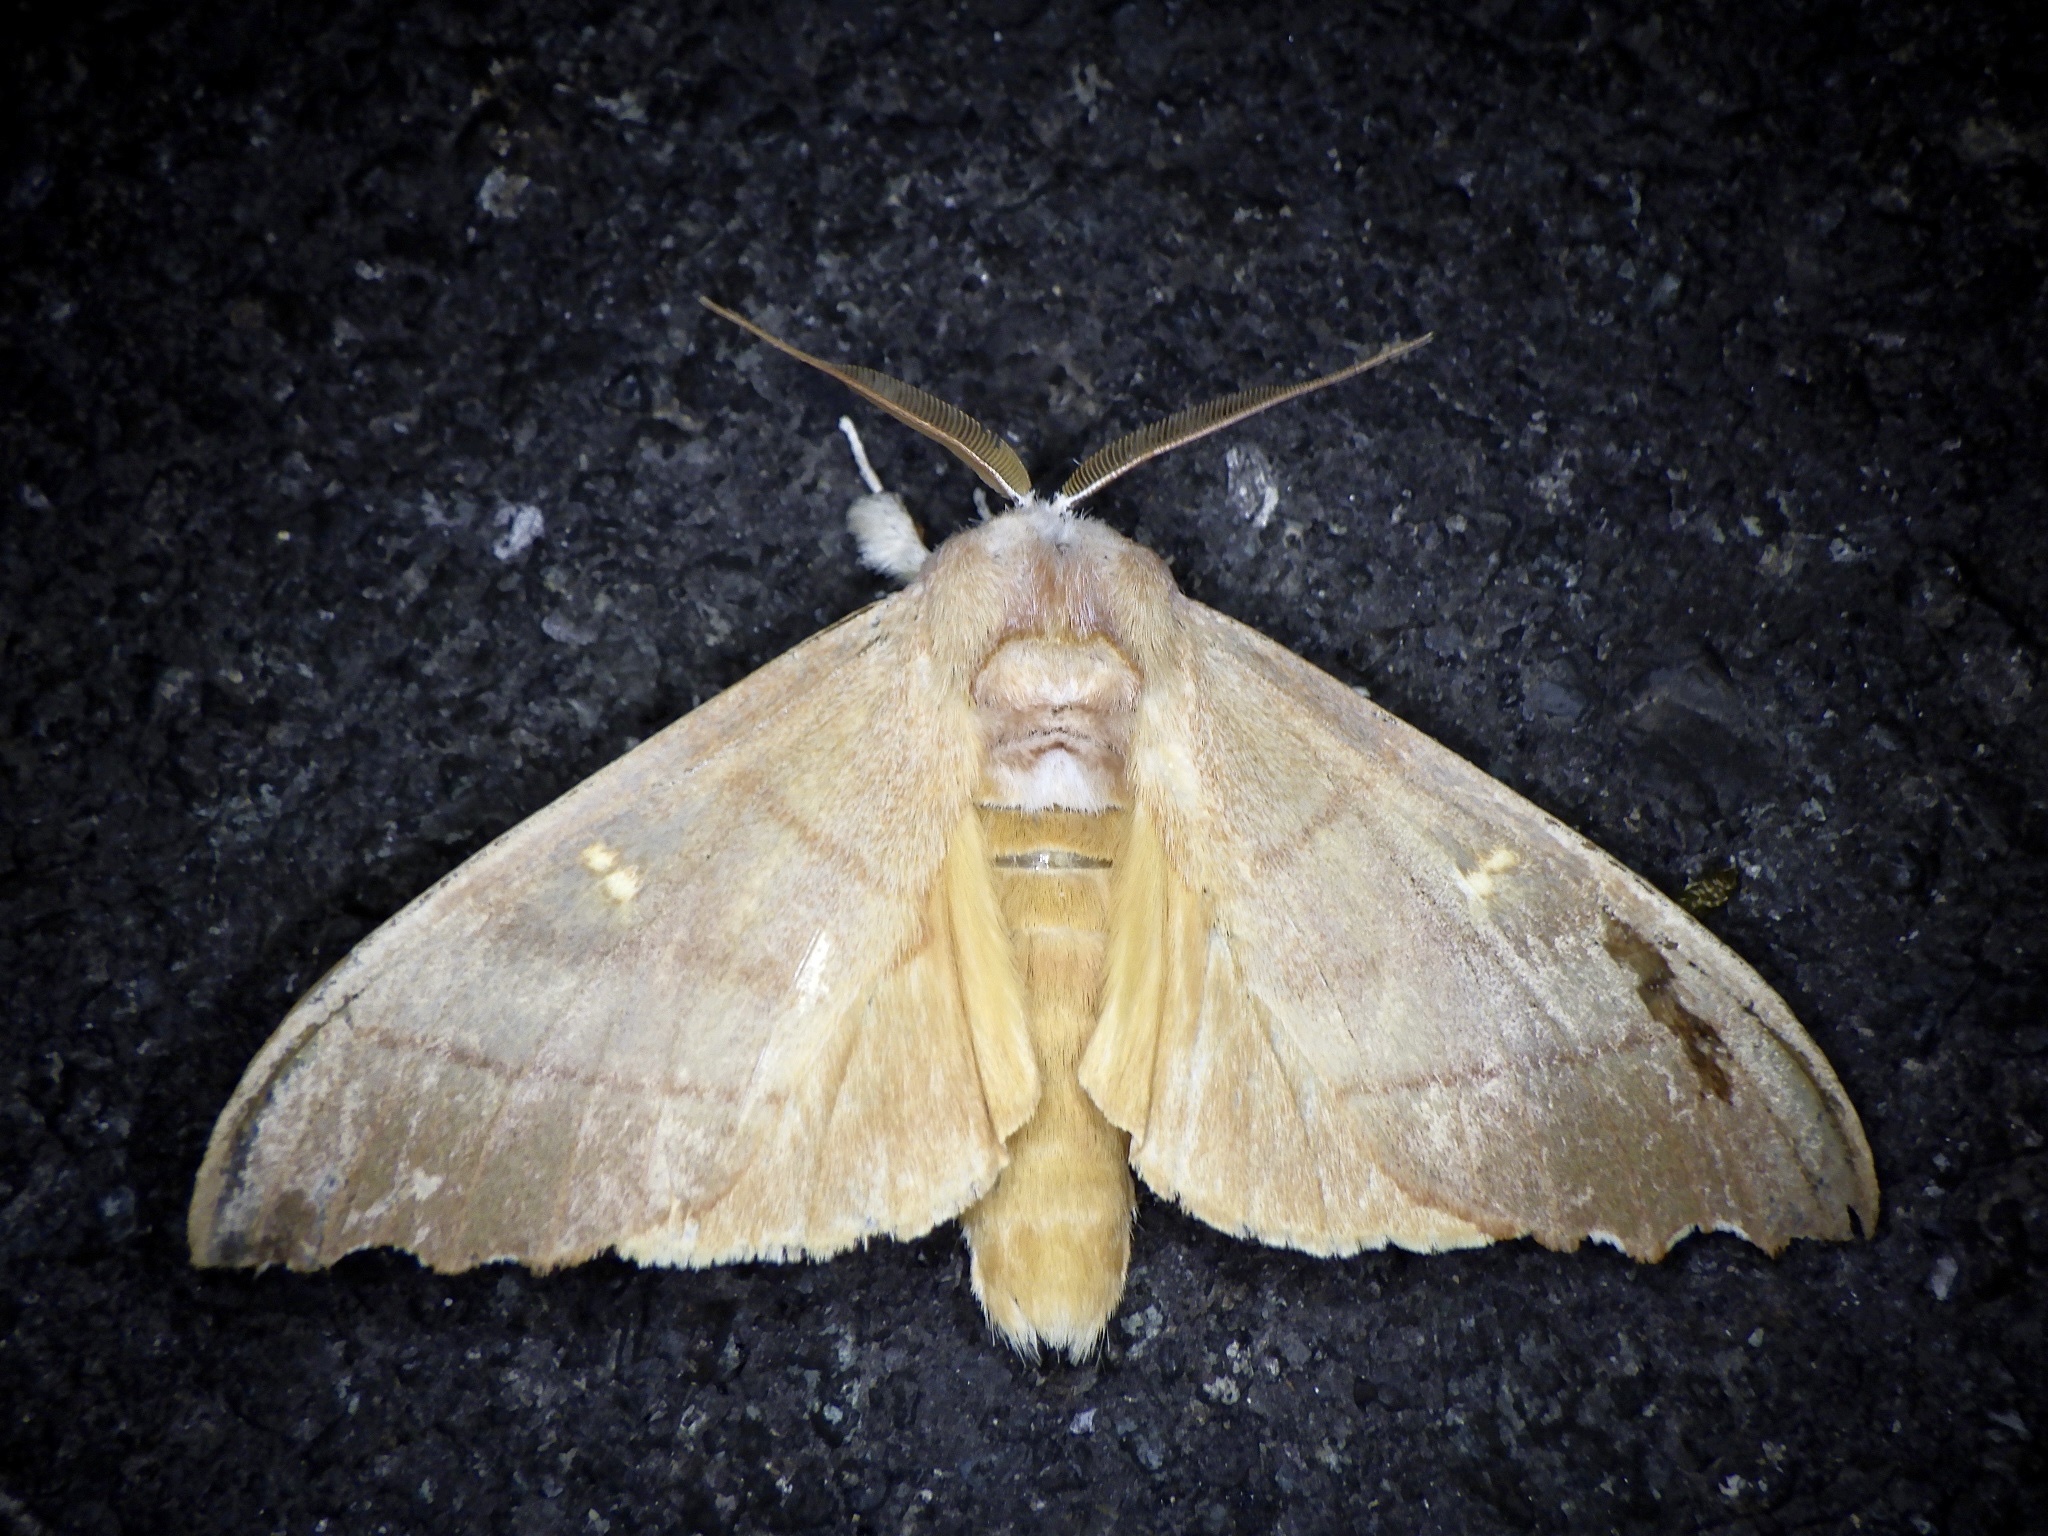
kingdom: Animalia
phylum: Arthropoda
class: Insecta
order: Lepidoptera
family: Notodontidae
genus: Euhampsonia
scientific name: Euhampsonia cristata
